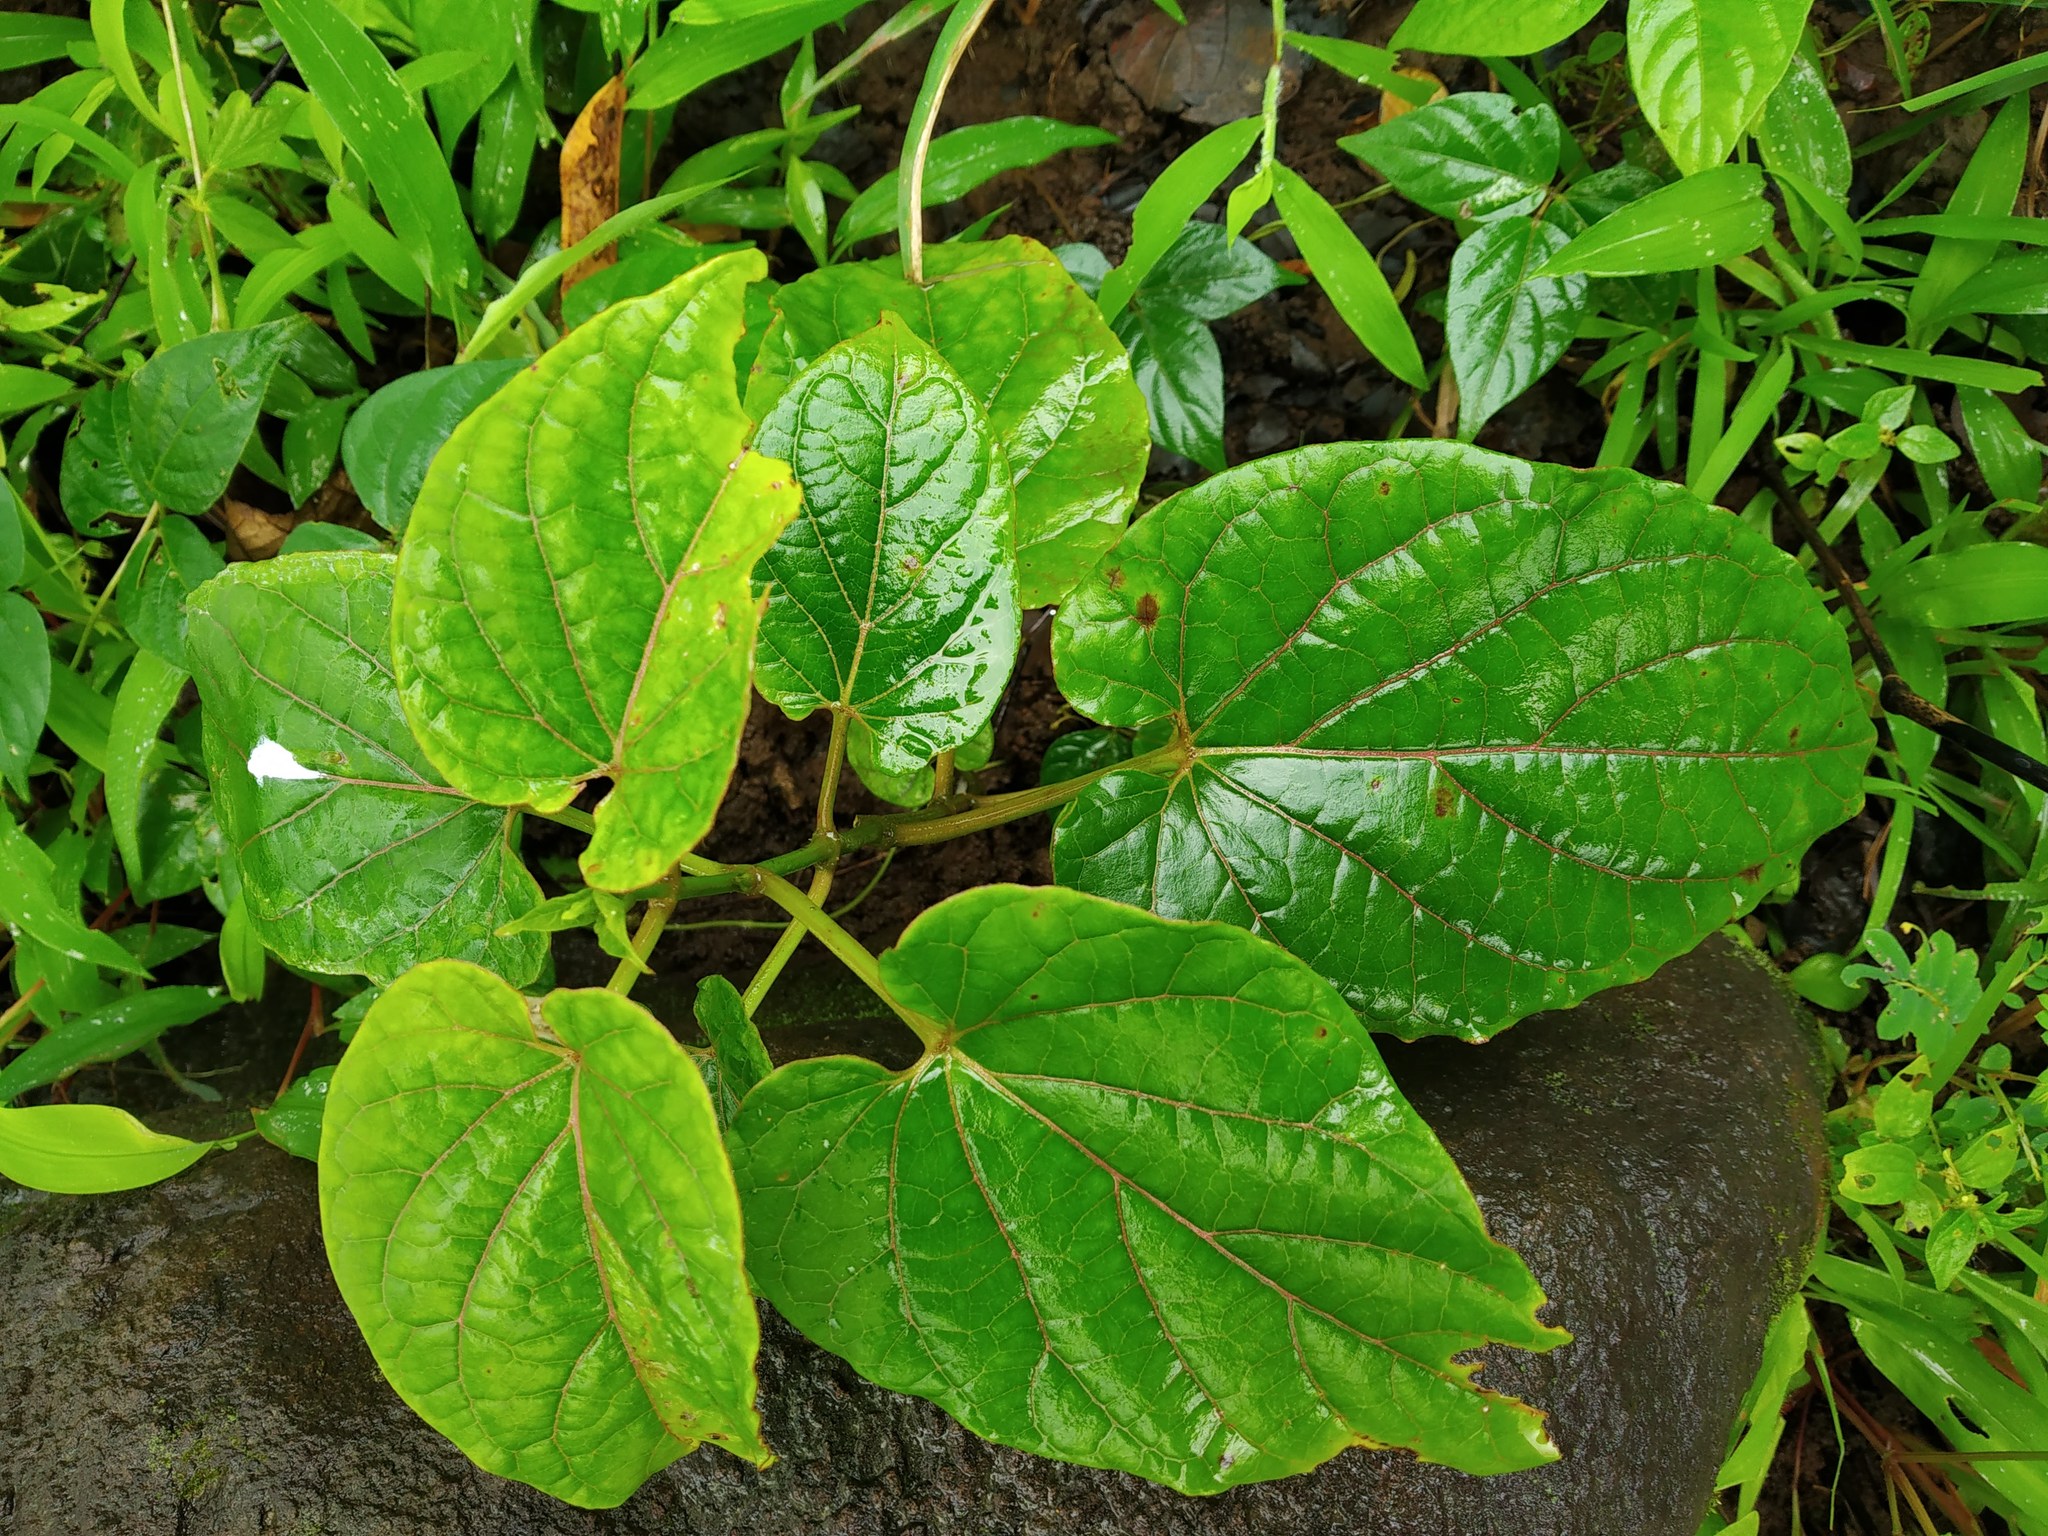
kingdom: Plantae
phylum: Tracheophyta
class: Magnoliopsida
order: Gentianales
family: Apocynaceae
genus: Cynanchum
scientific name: Cynanchum annularium
